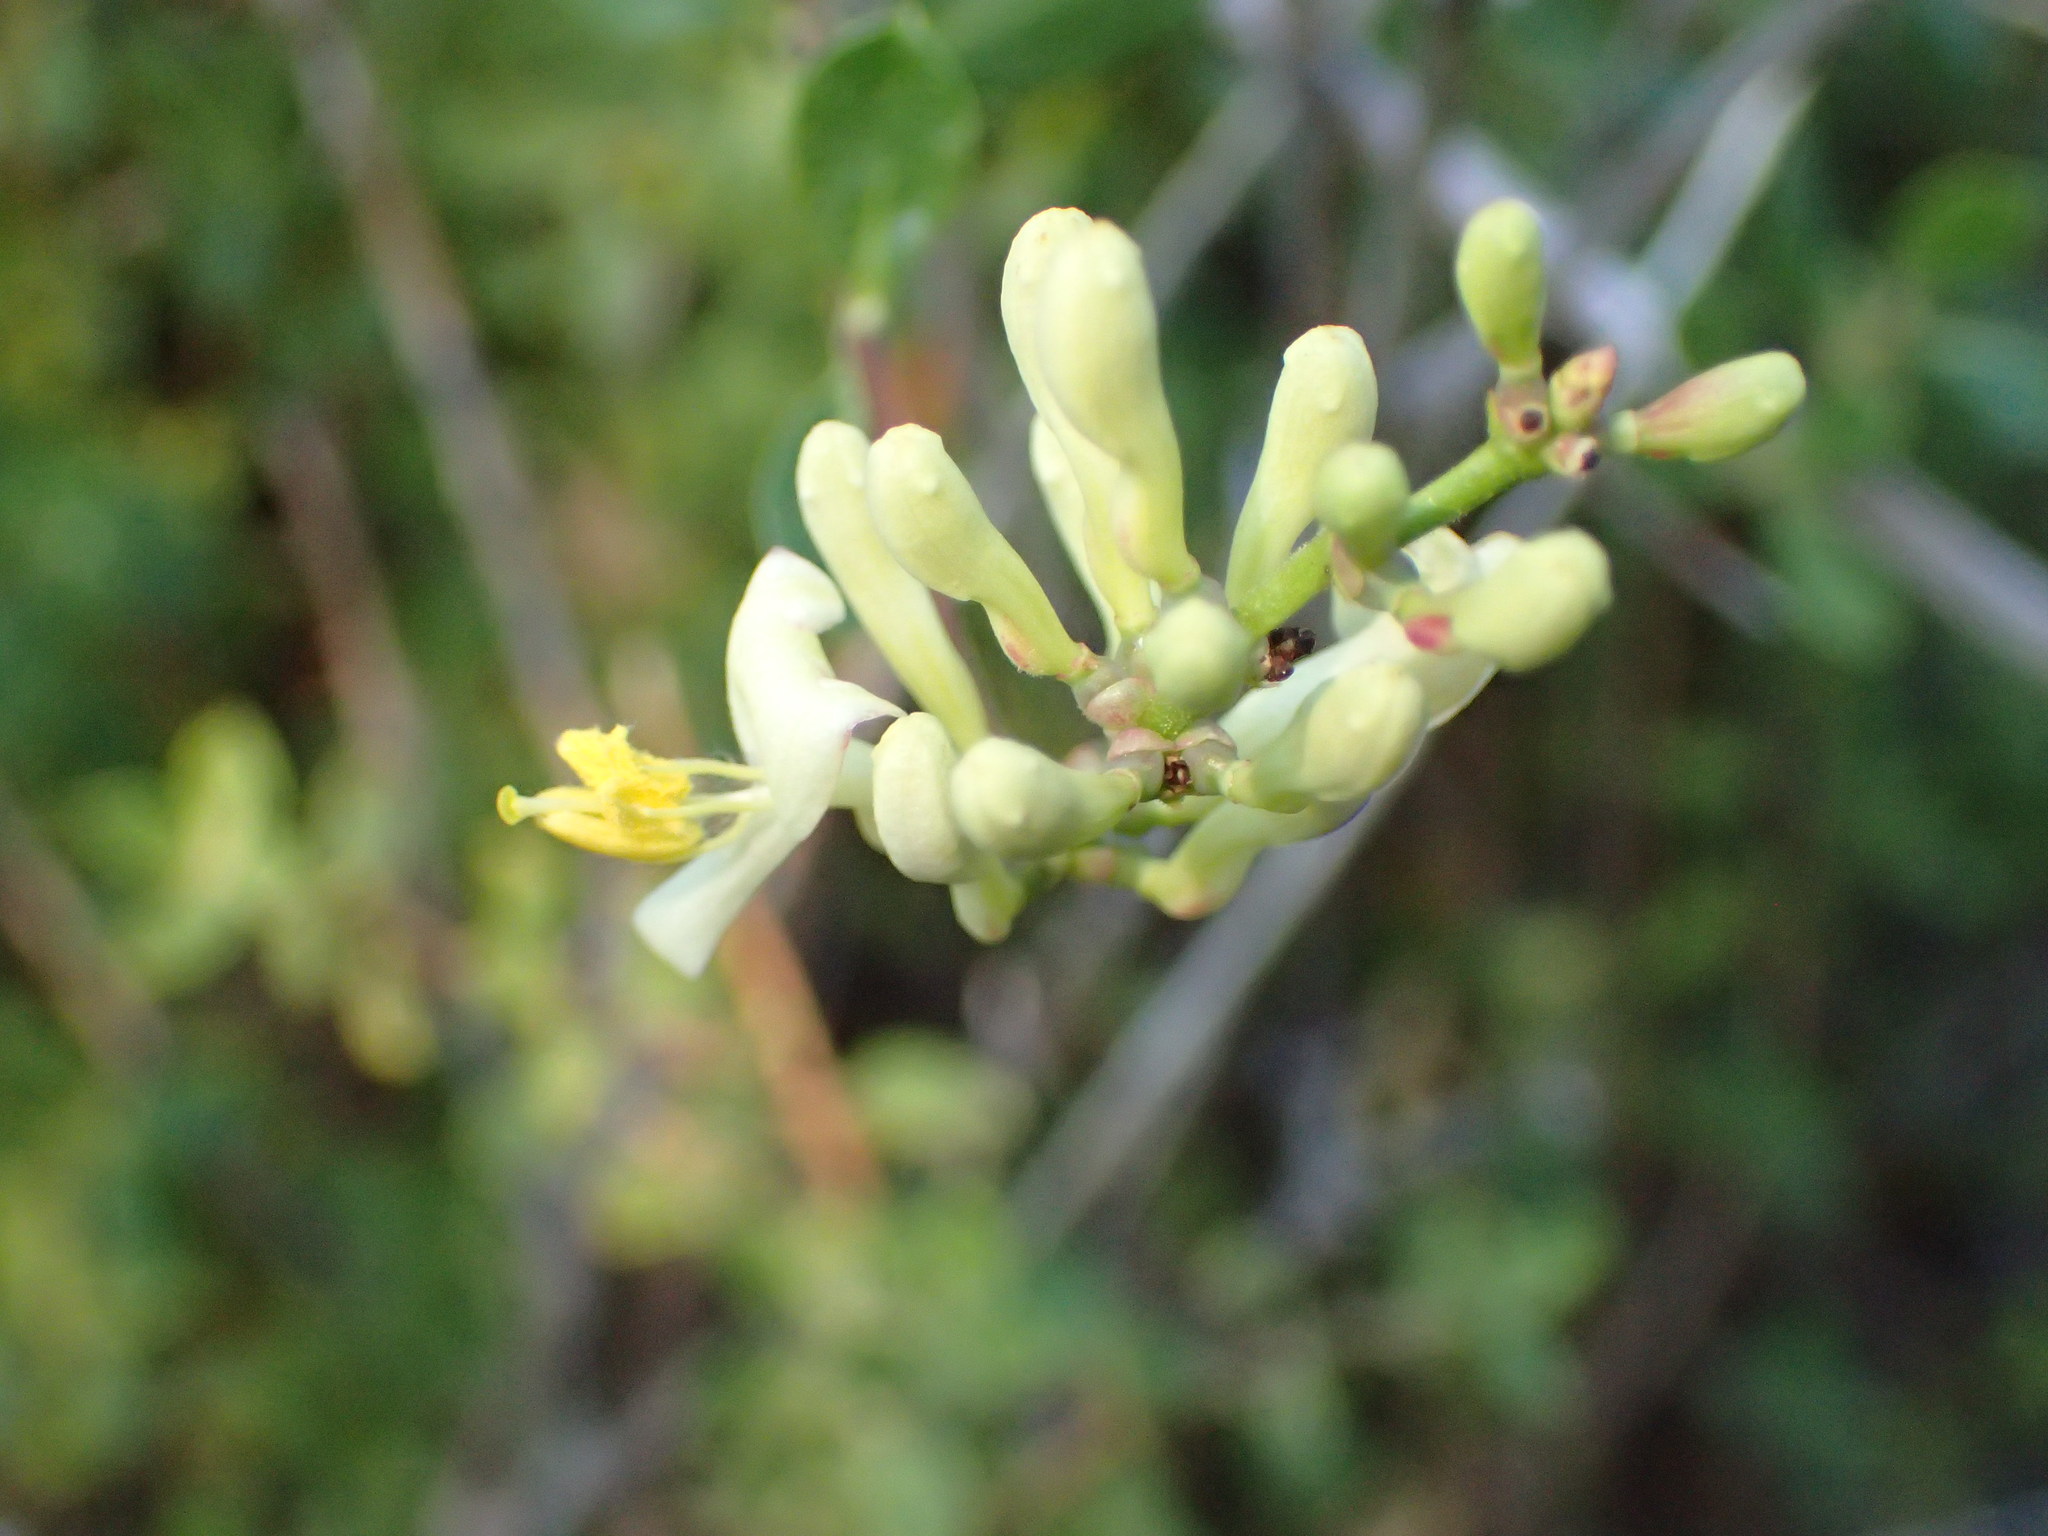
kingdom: Plantae
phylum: Tracheophyta
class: Magnoliopsida
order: Dipsacales
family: Caprifoliaceae
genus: Lonicera
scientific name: Lonicera subspicata
